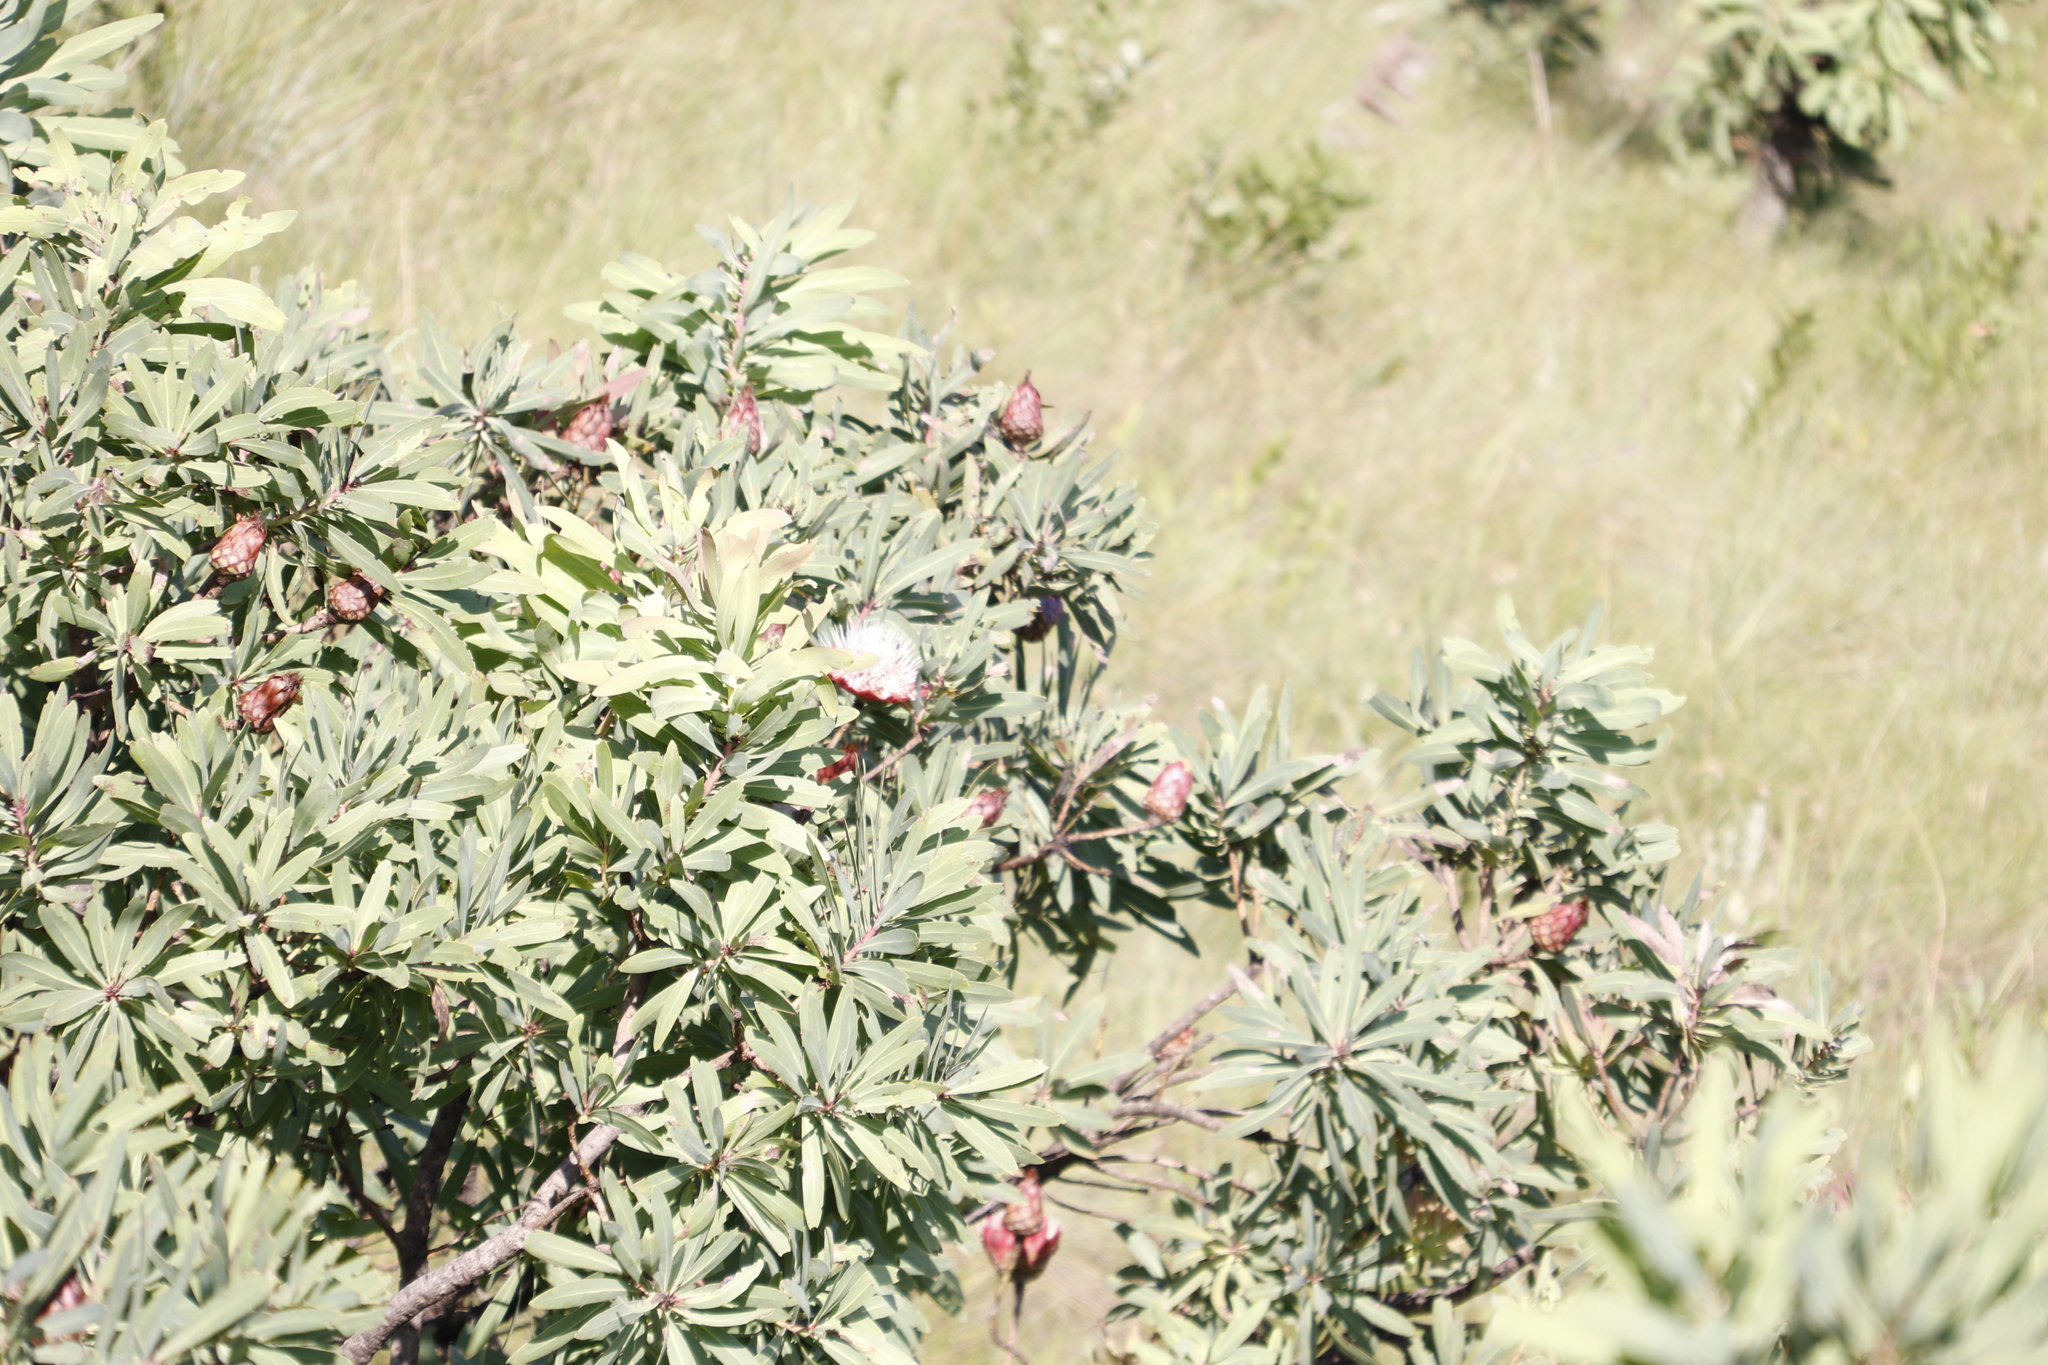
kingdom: Plantae
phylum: Tracheophyta
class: Magnoliopsida
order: Proteales
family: Proteaceae
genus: Protea
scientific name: Protea caffra
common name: Common sugarbush
